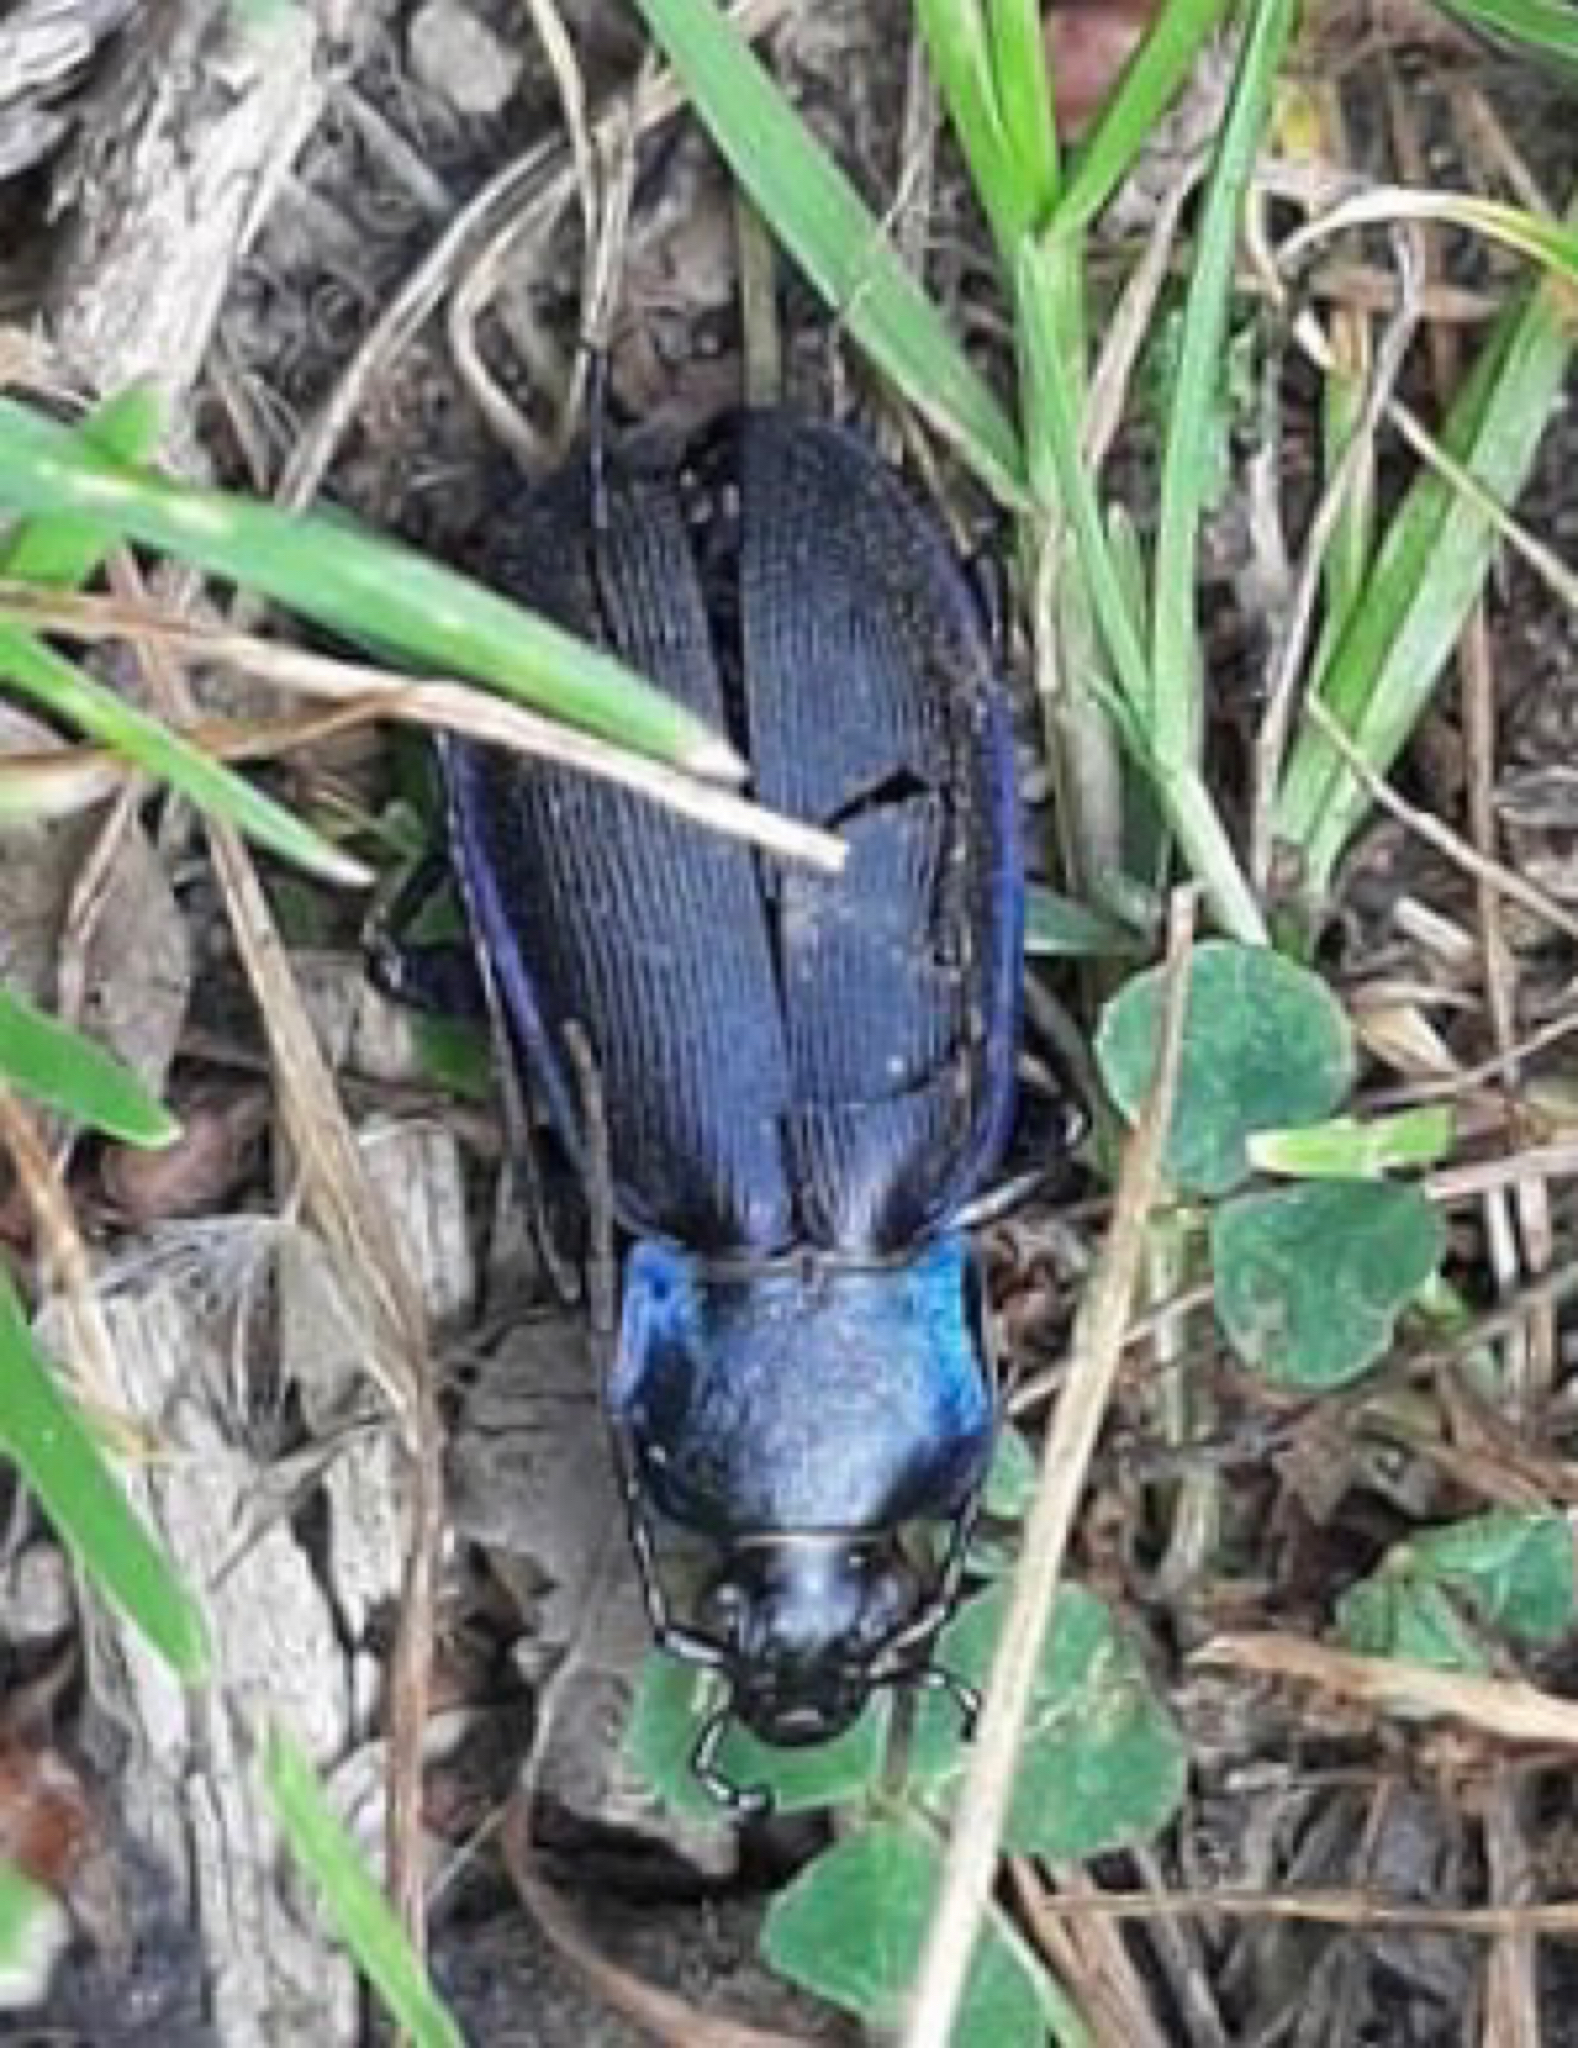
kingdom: Animalia
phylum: Arthropoda
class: Insecta
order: Coleoptera
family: Carabidae
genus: Carabus
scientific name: Carabus purpurascens
